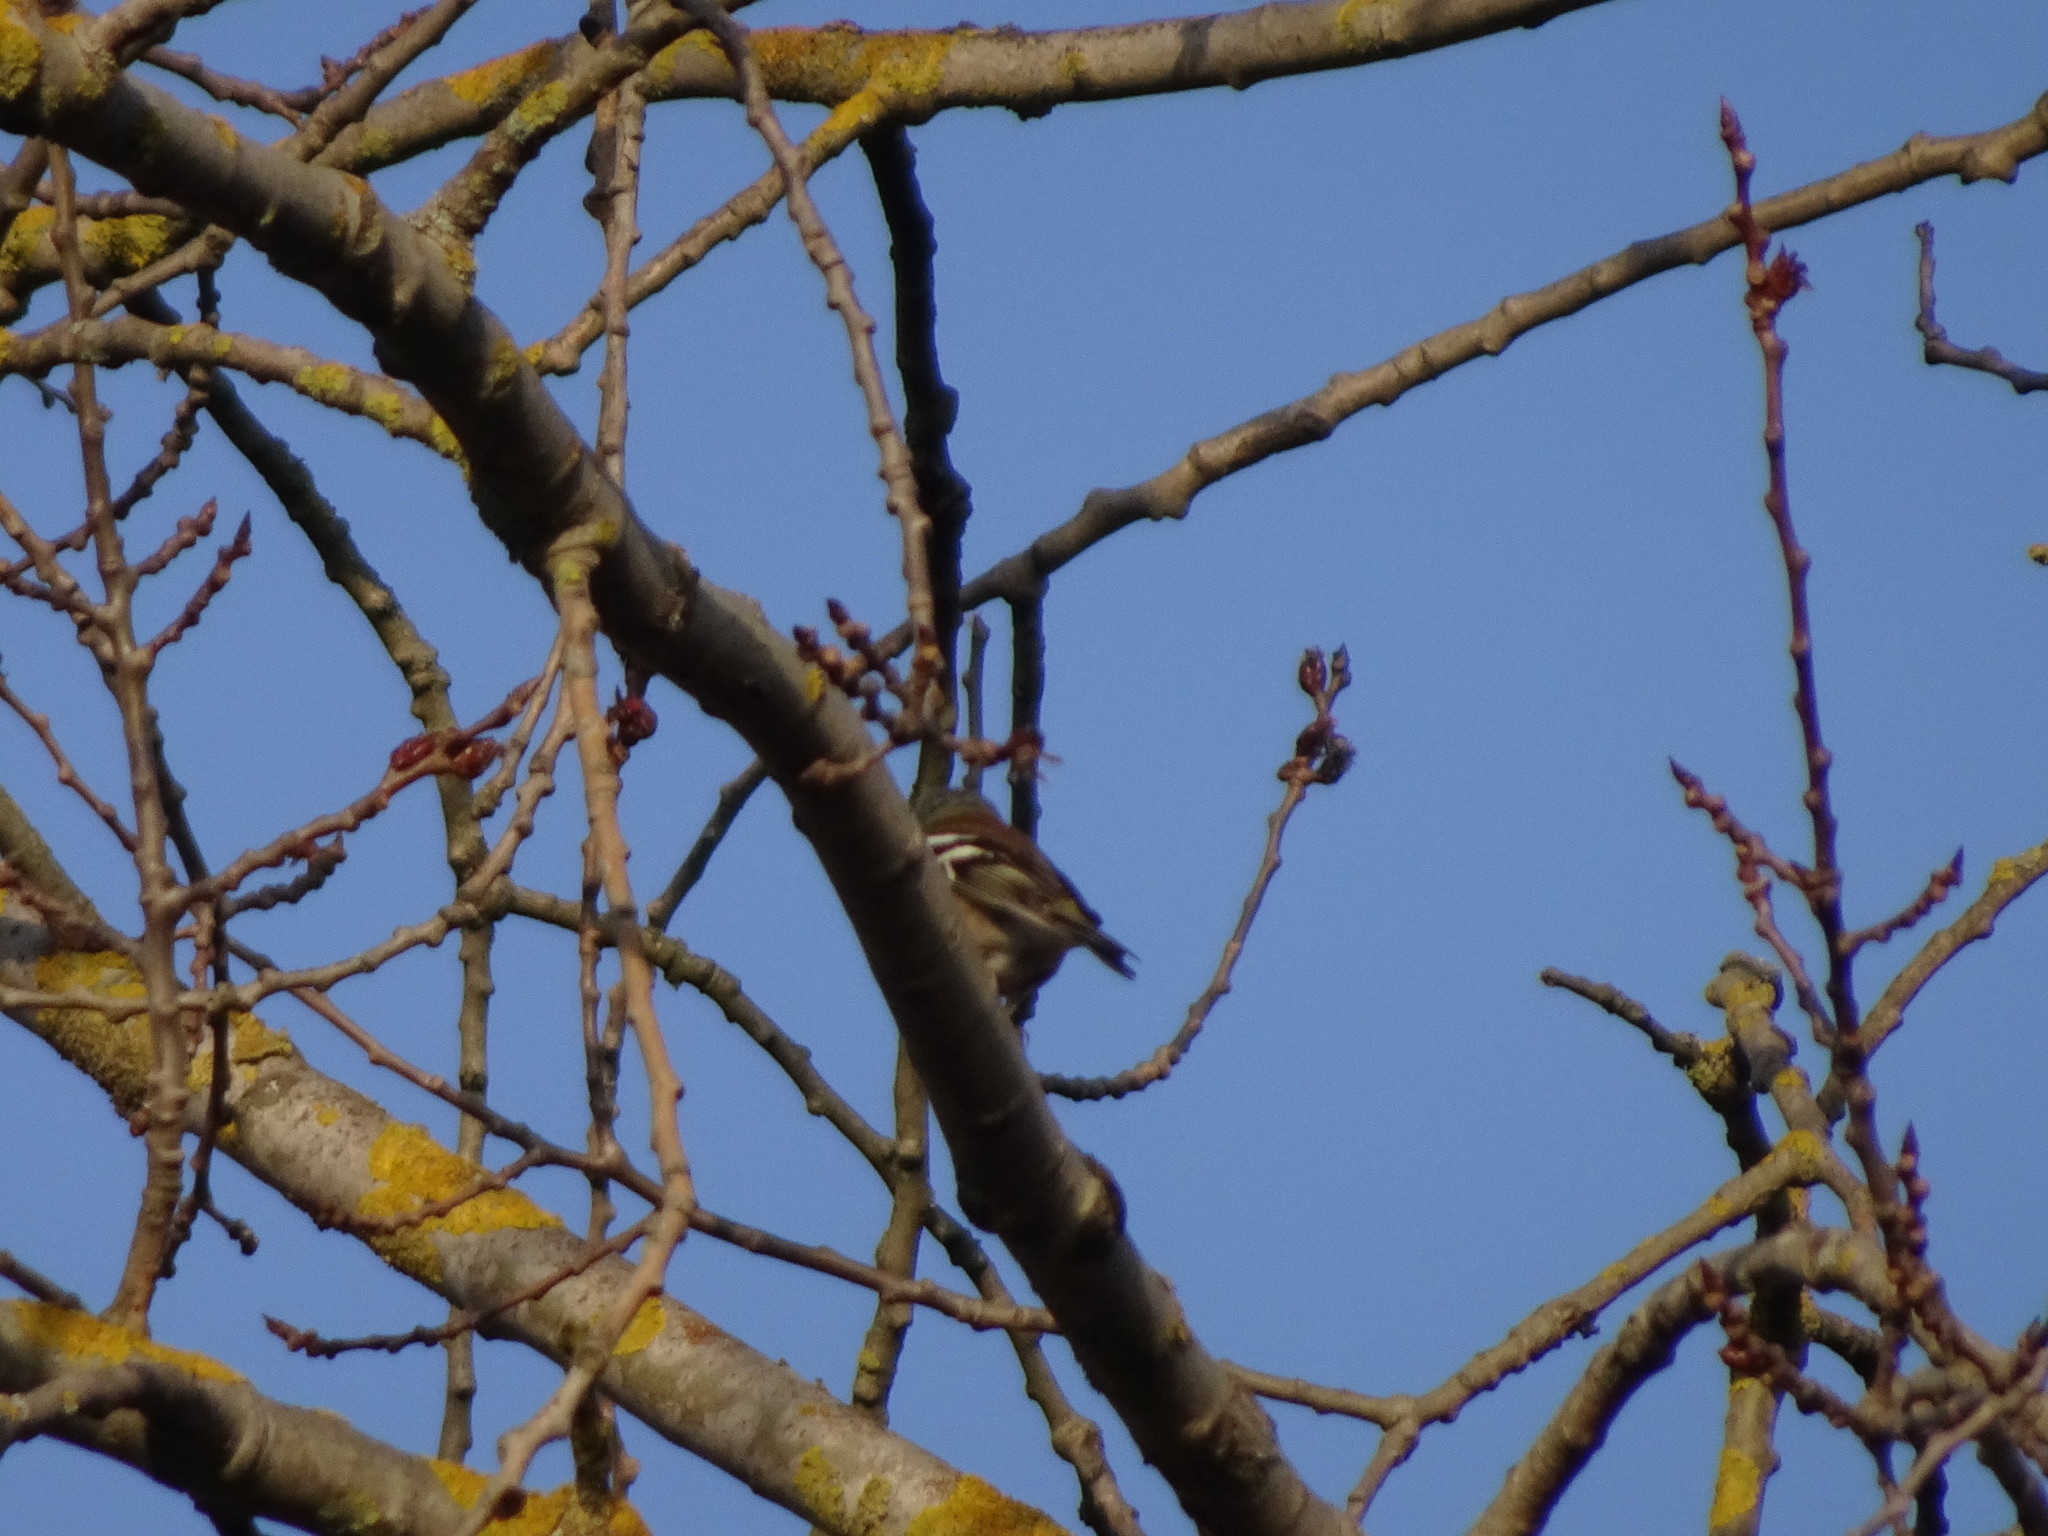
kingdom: Animalia
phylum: Chordata
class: Aves
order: Passeriformes
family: Fringillidae
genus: Fringilla
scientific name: Fringilla coelebs
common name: Common chaffinch
